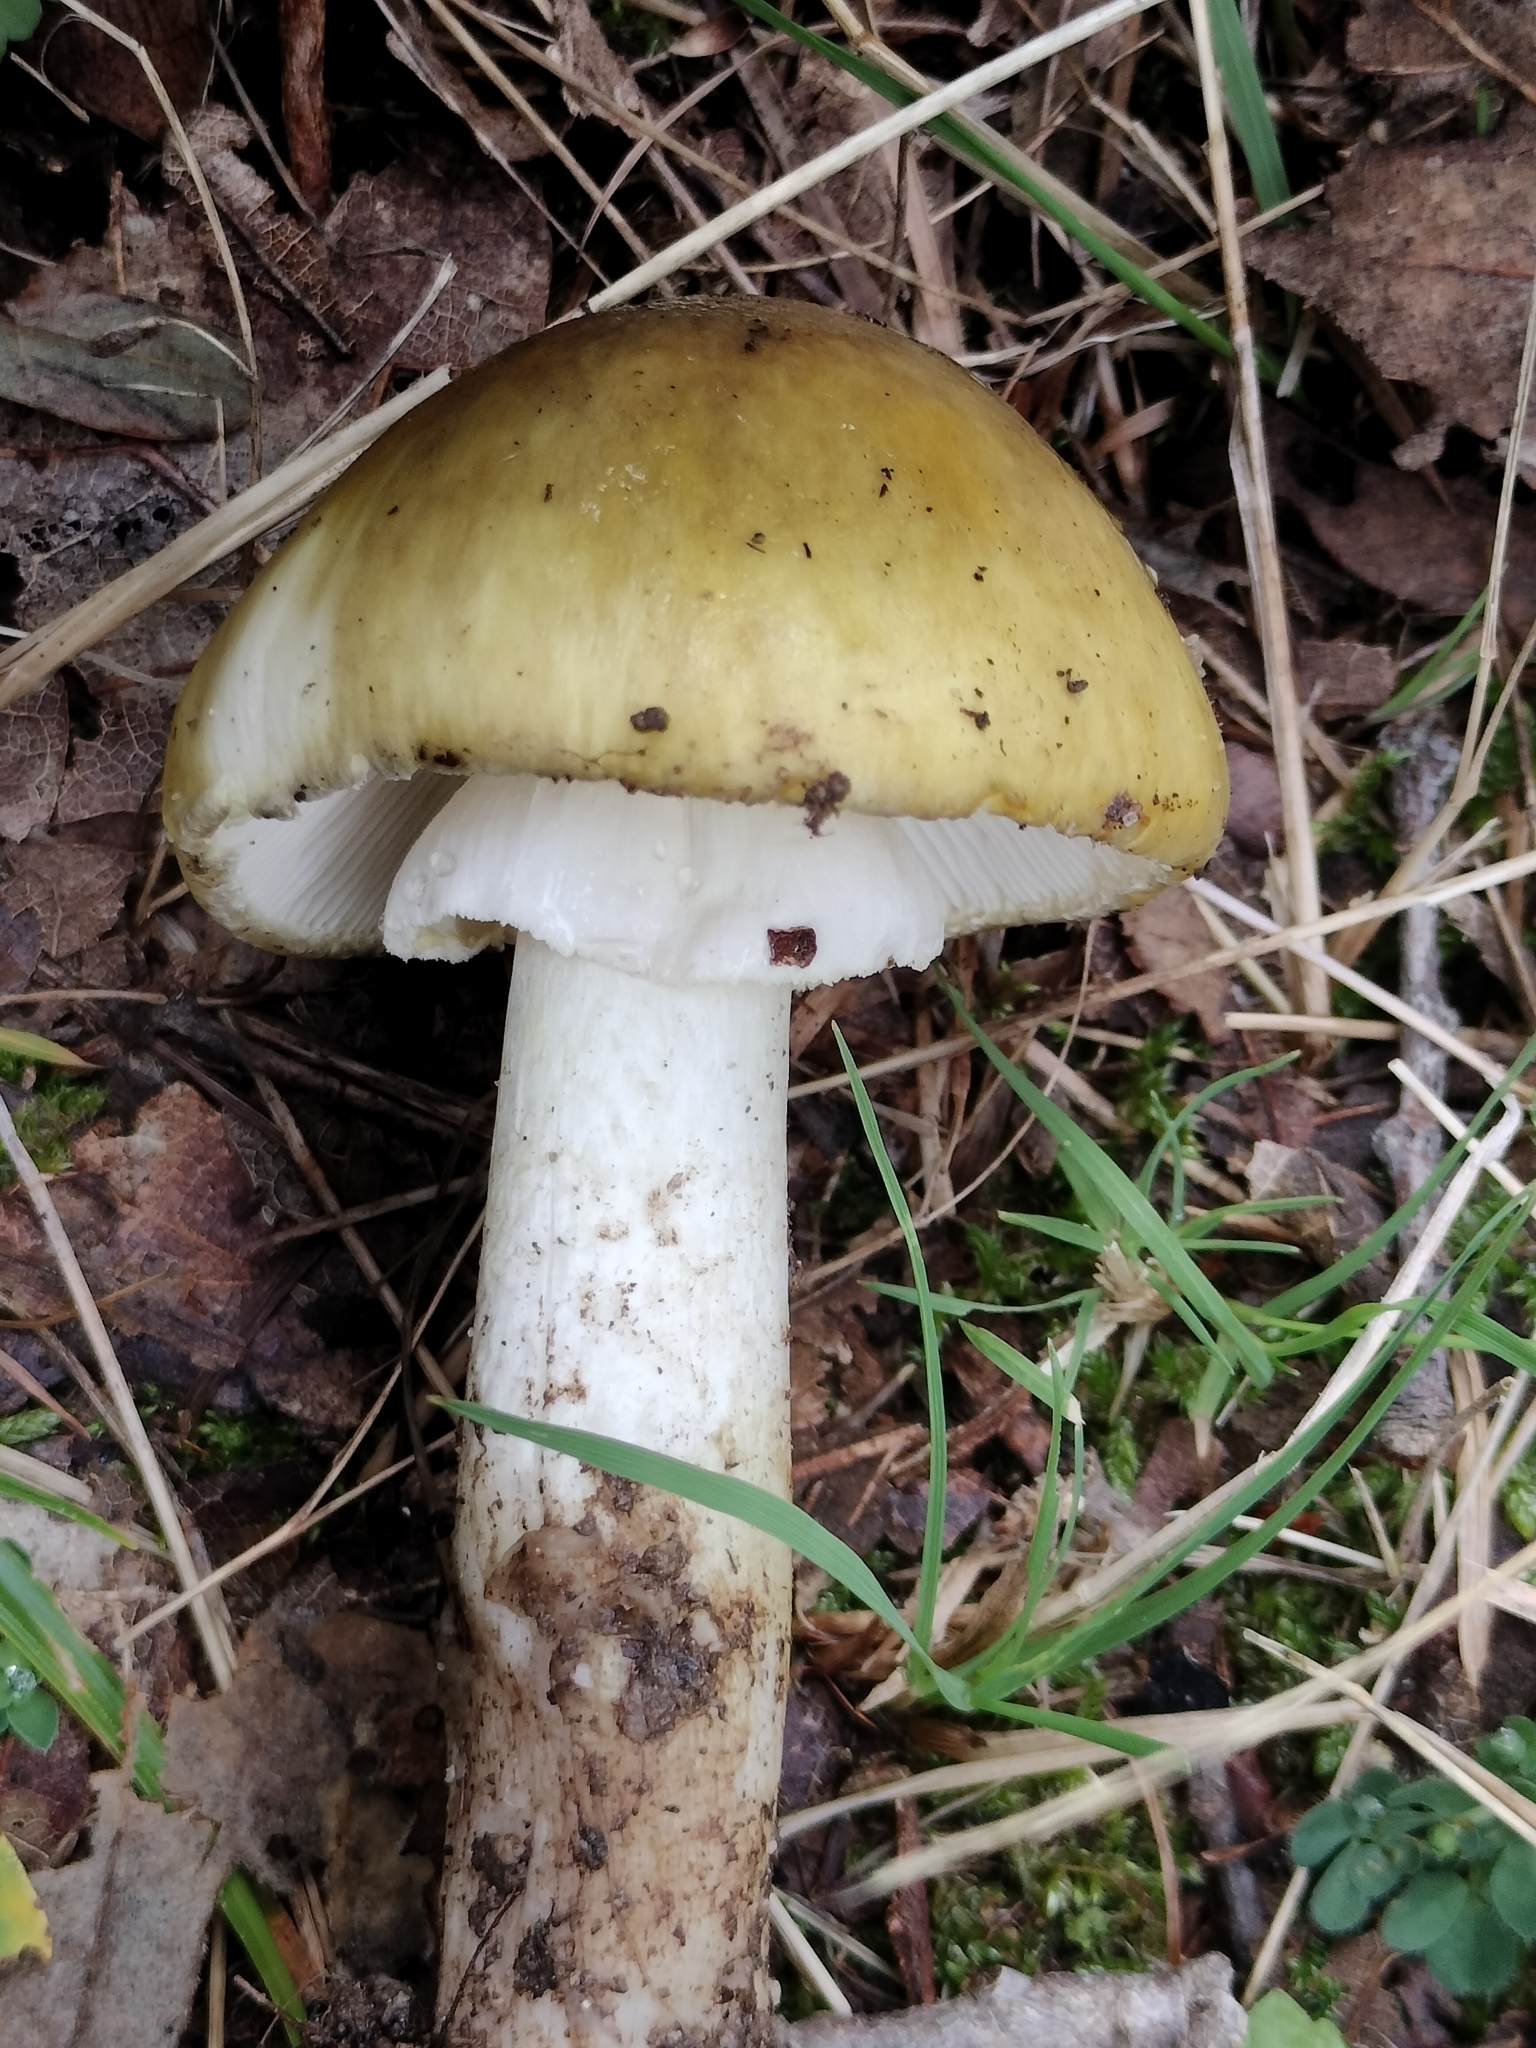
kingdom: Fungi
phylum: Basidiomycota
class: Agaricomycetes
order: Agaricales
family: Amanitaceae
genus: Amanita
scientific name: Amanita phalloides
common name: Death cap
